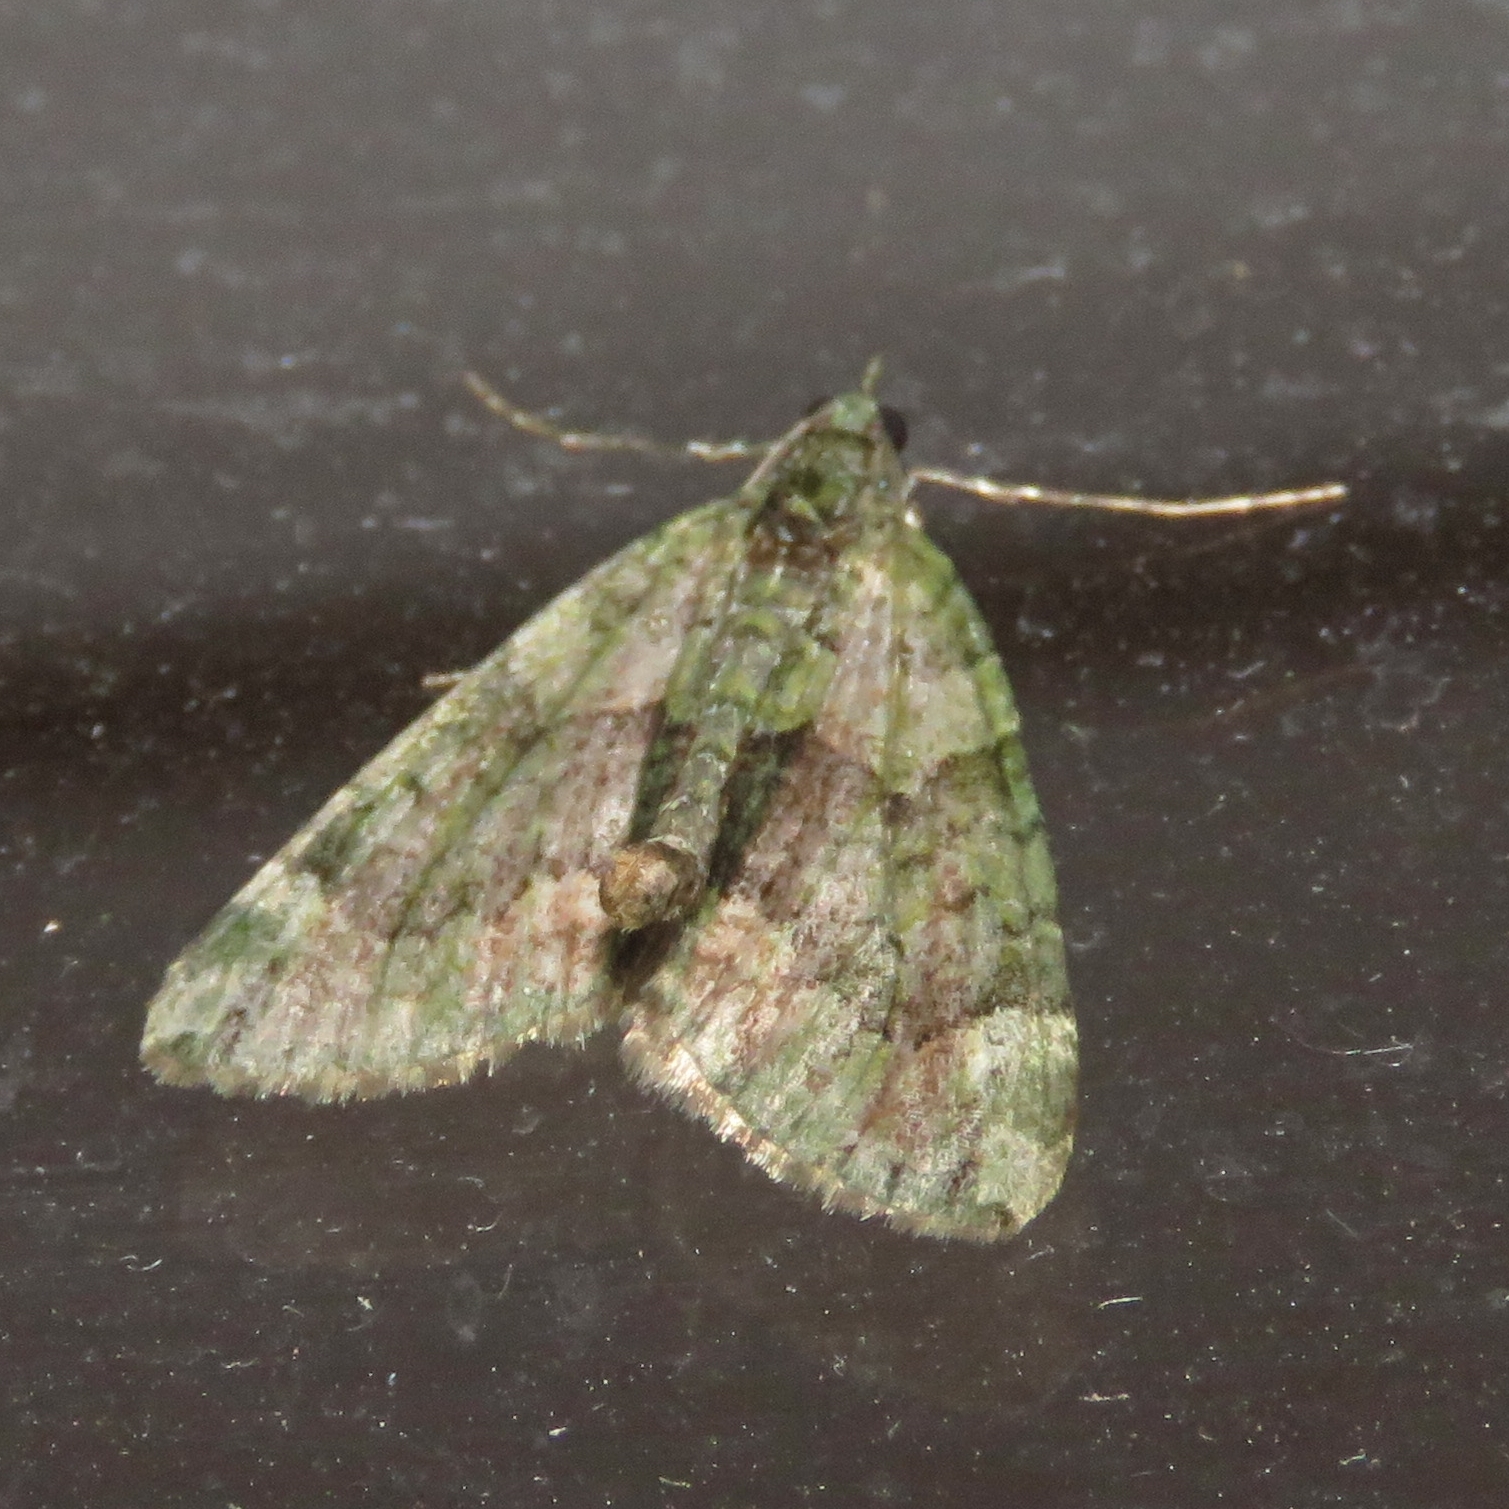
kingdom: Animalia
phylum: Arthropoda
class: Insecta
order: Lepidoptera
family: Geometridae
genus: Chloroclysta
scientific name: Chloroclysta siterata
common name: Red-green carpet
